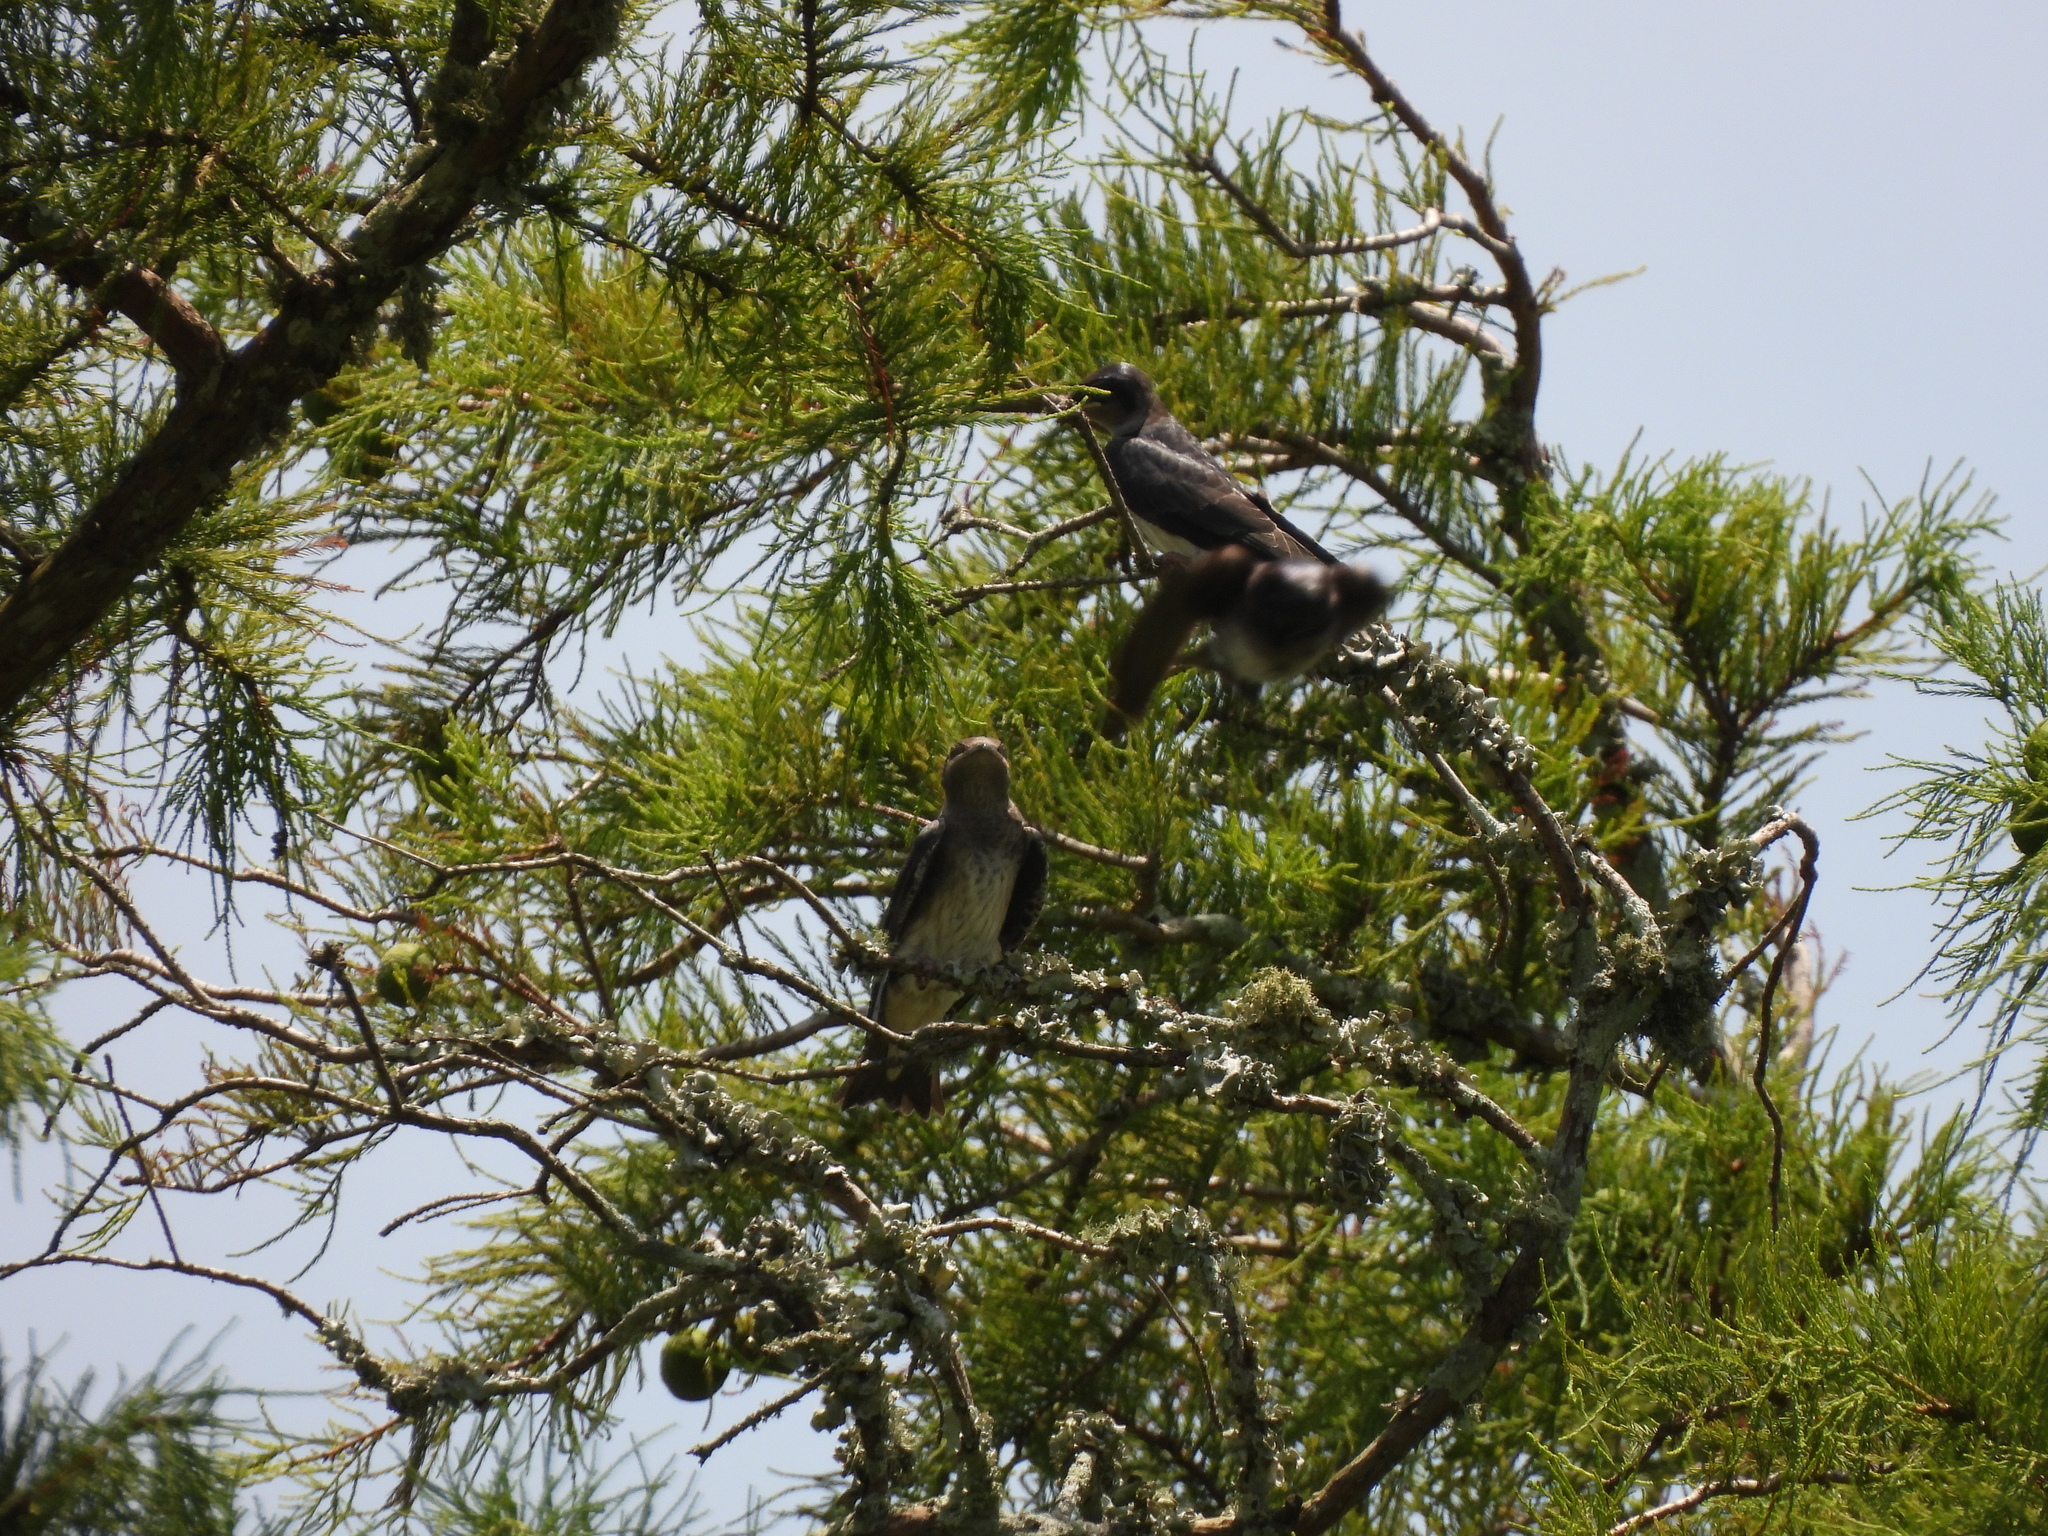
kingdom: Animalia
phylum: Chordata
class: Aves
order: Passeriformes
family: Hirundinidae
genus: Progne
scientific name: Progne subis
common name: Purple martin
